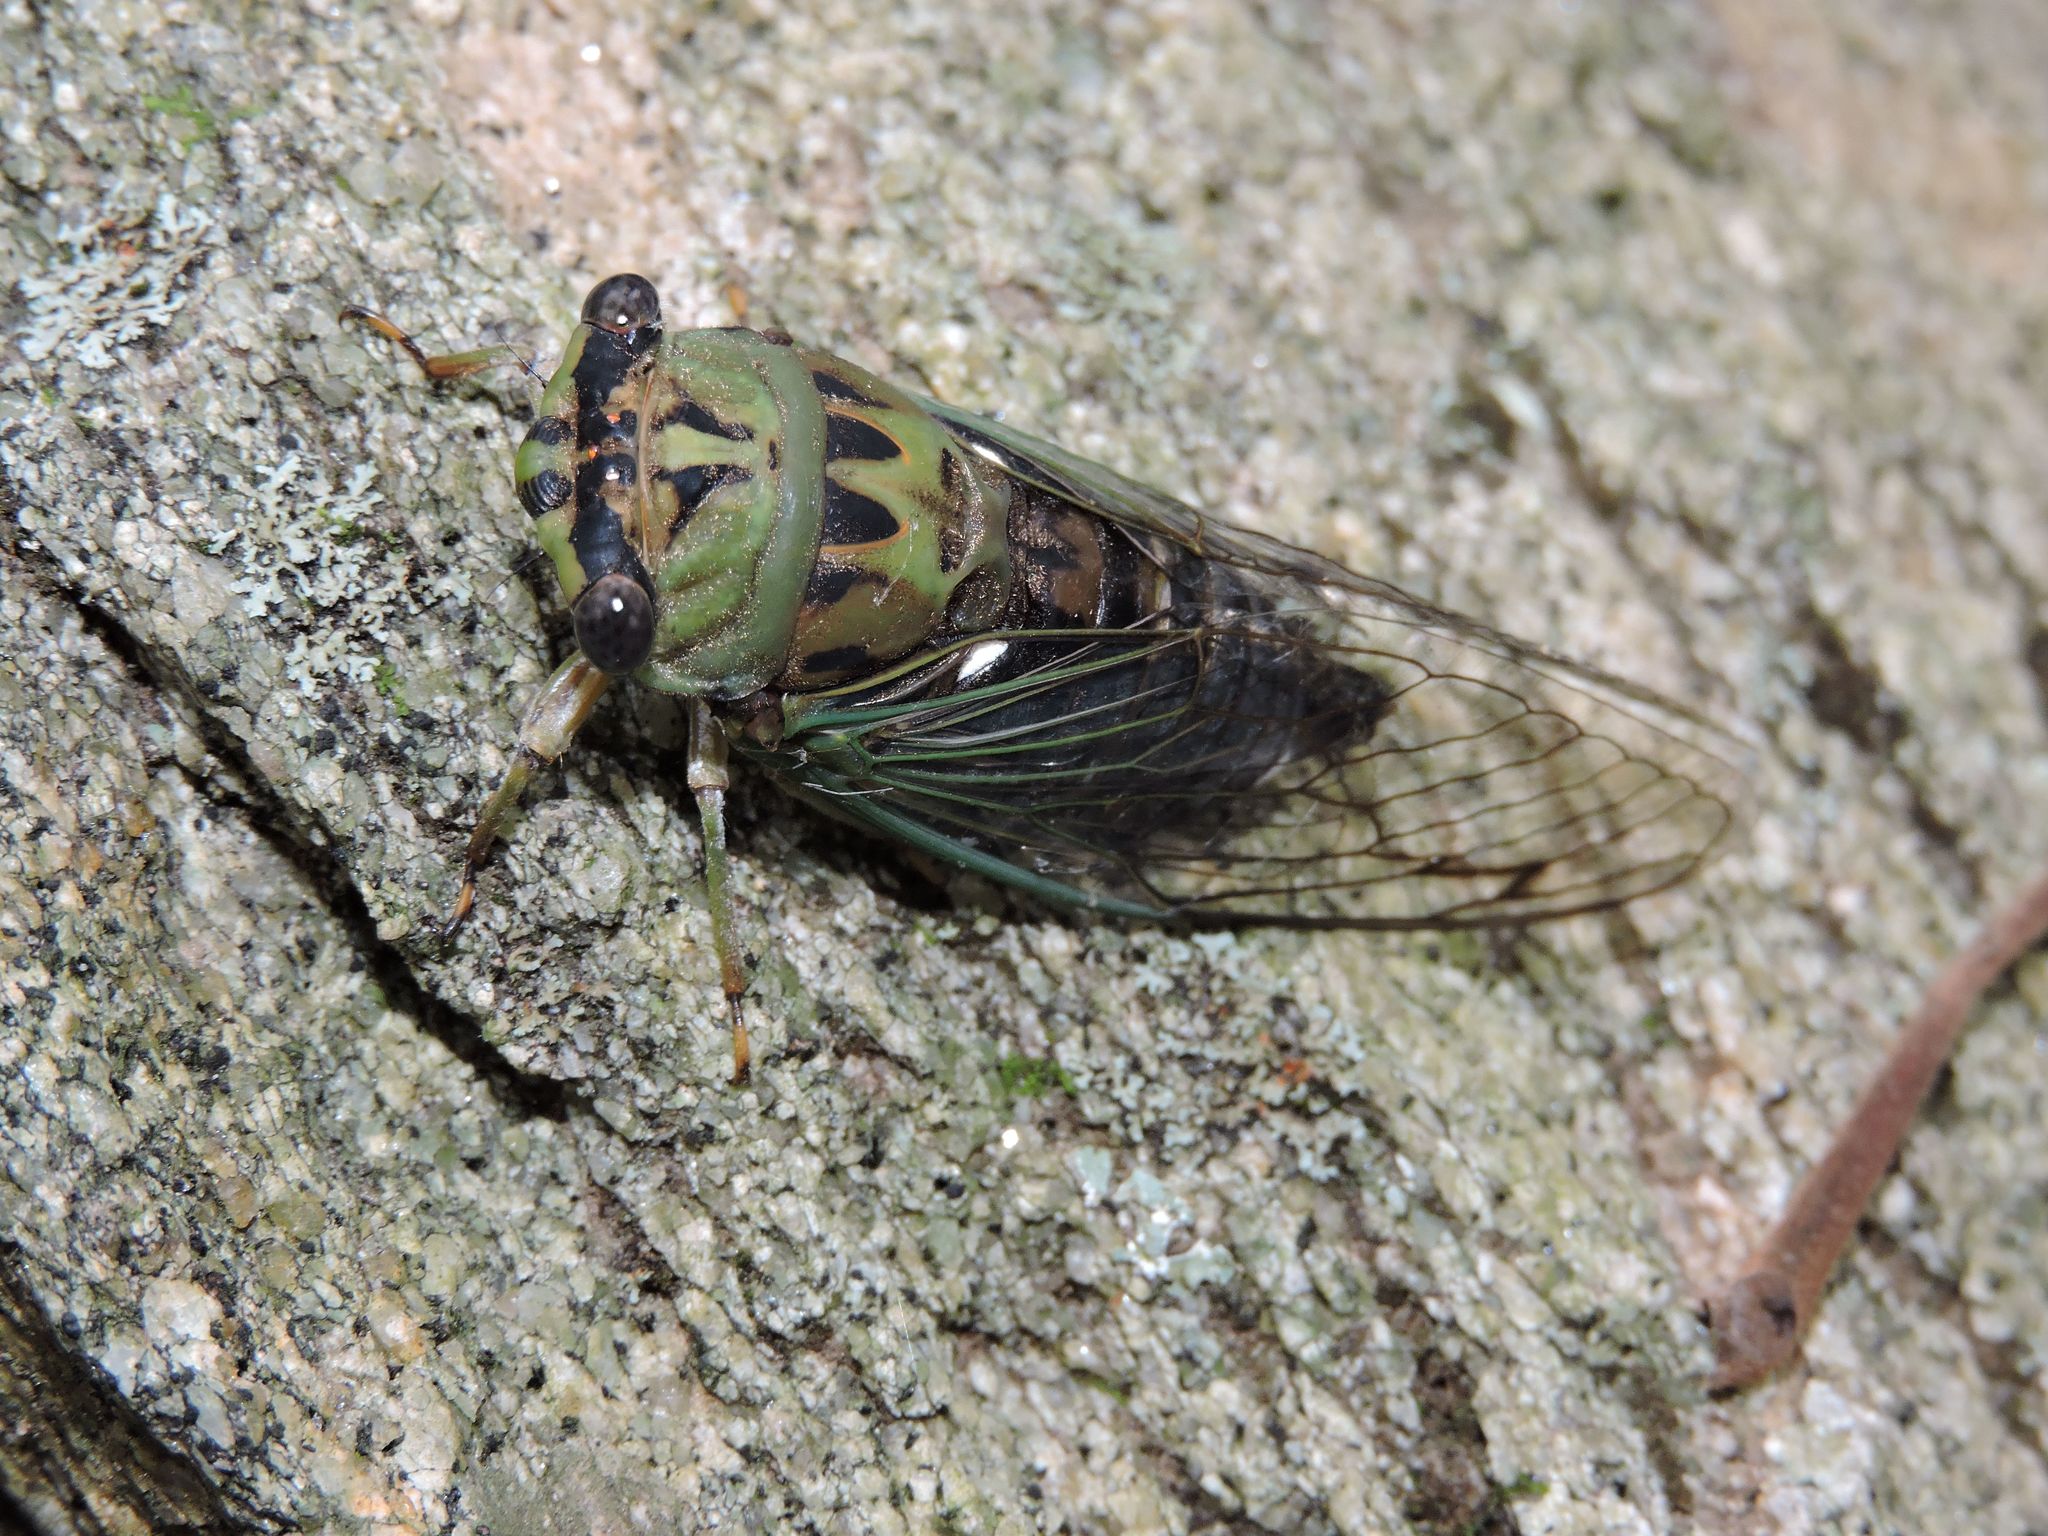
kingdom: Animalia
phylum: Arthropoda
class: Insecta
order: Hemiptera
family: Cicadidae
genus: Neotibicen
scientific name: Neotibicen winnemanna
